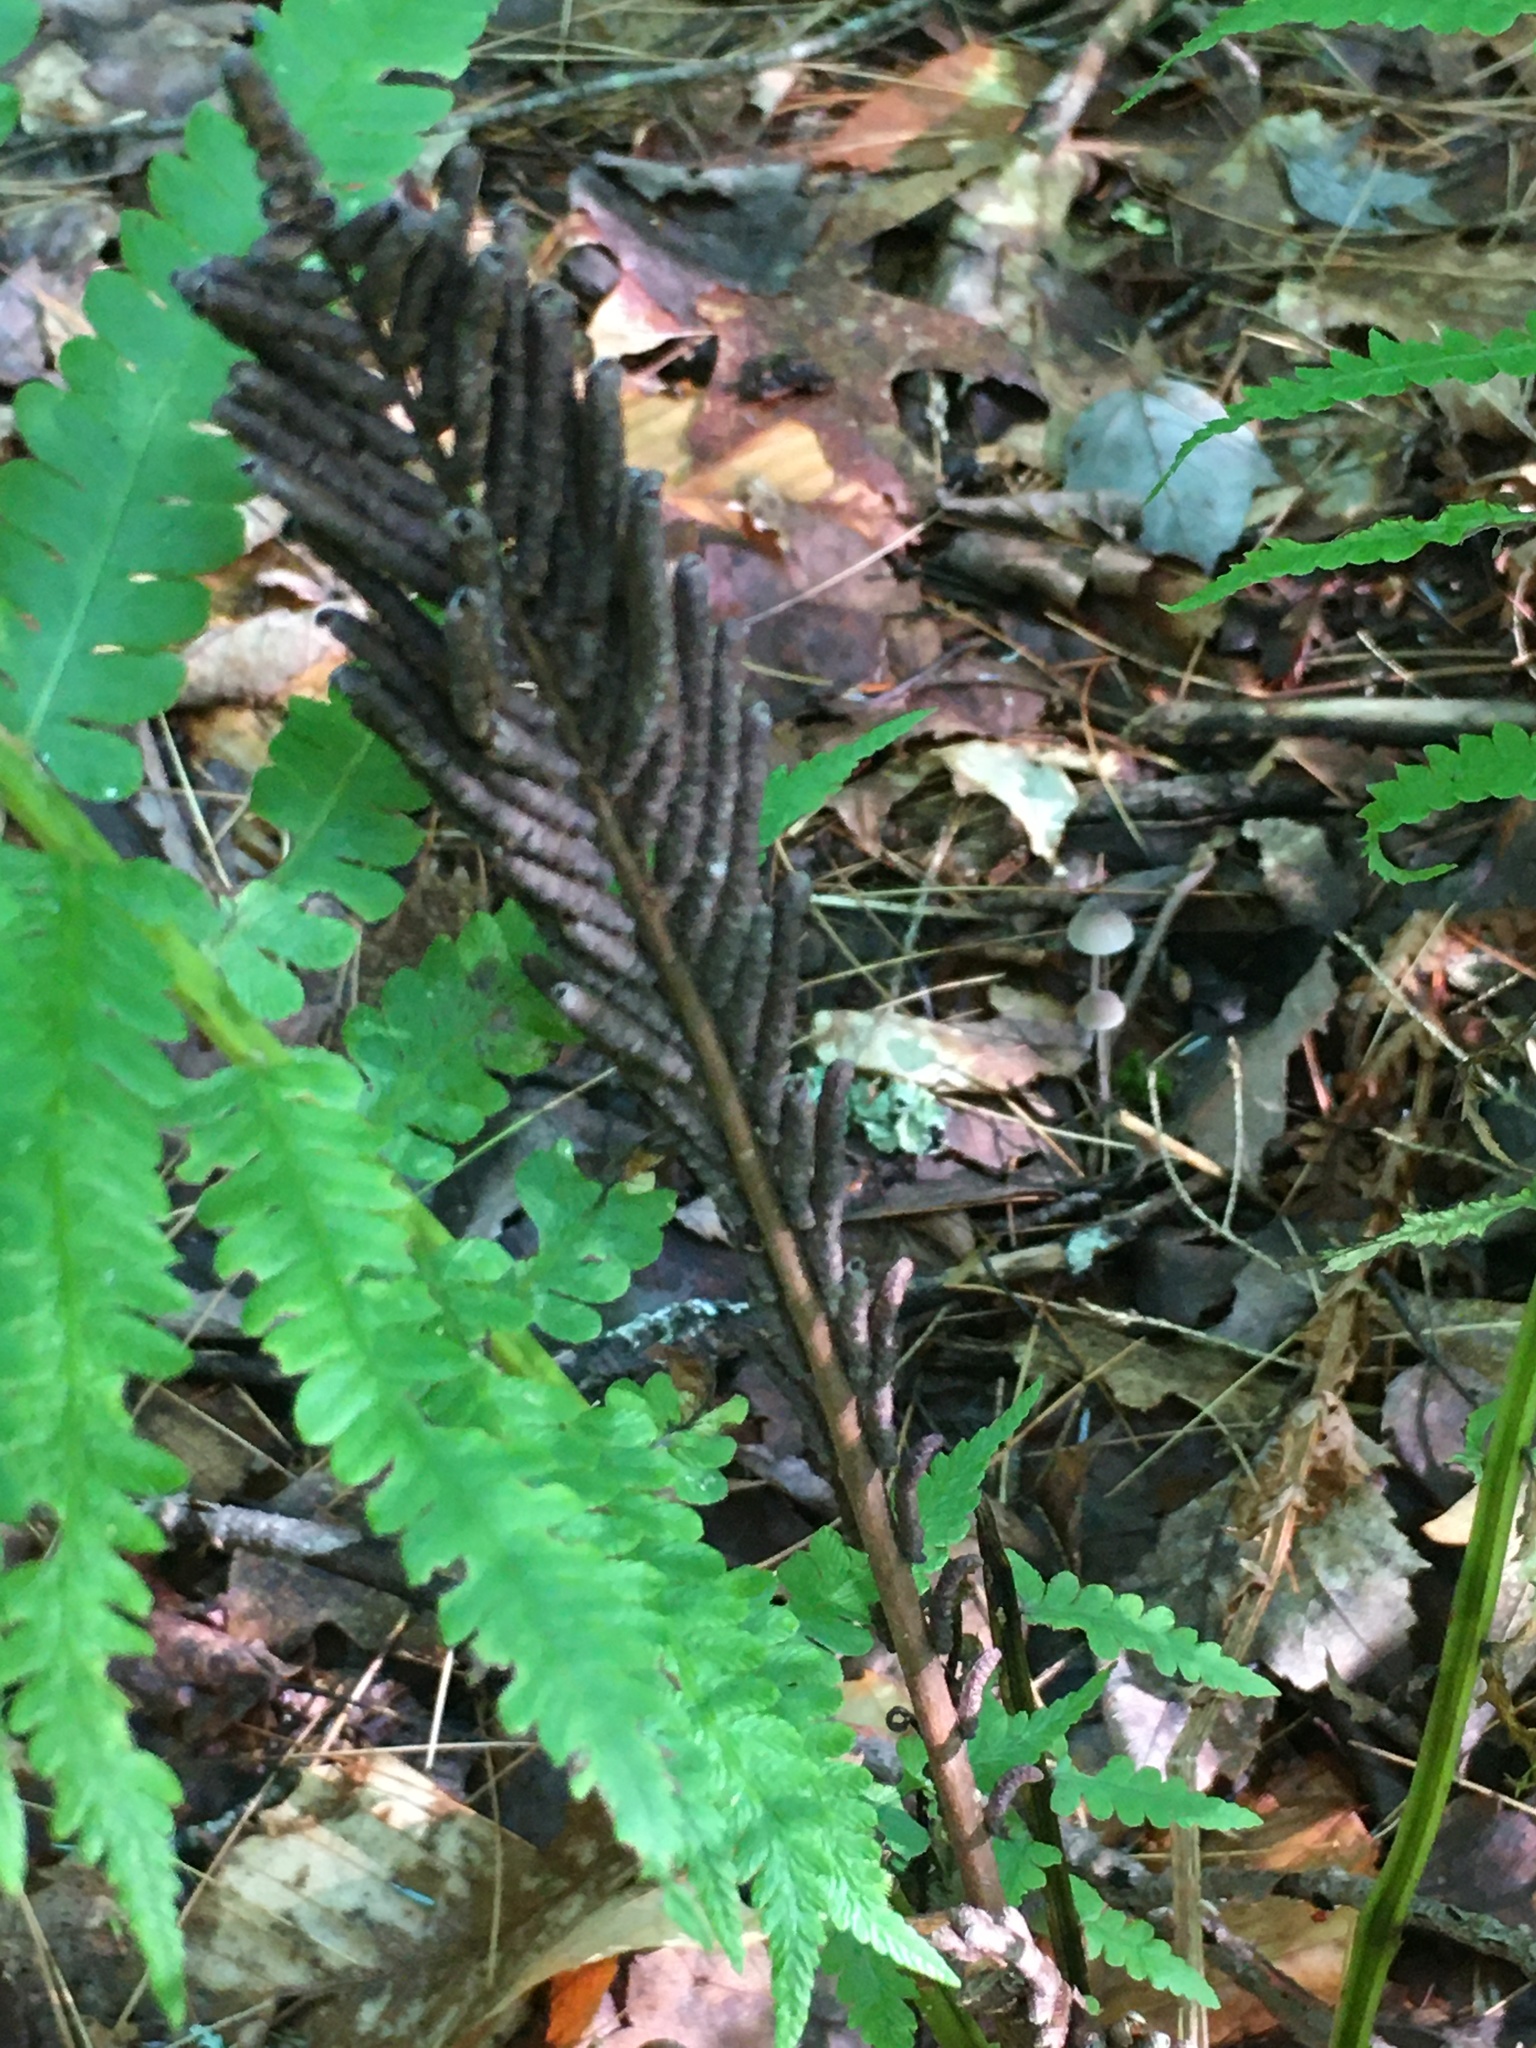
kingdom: Plantae
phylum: Tracheophyta
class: Polypodiopsida
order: Polypodiales
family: Onocleaceae
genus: Matteuccia
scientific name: Matteuccia struthiopteris
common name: Ostrich fern
